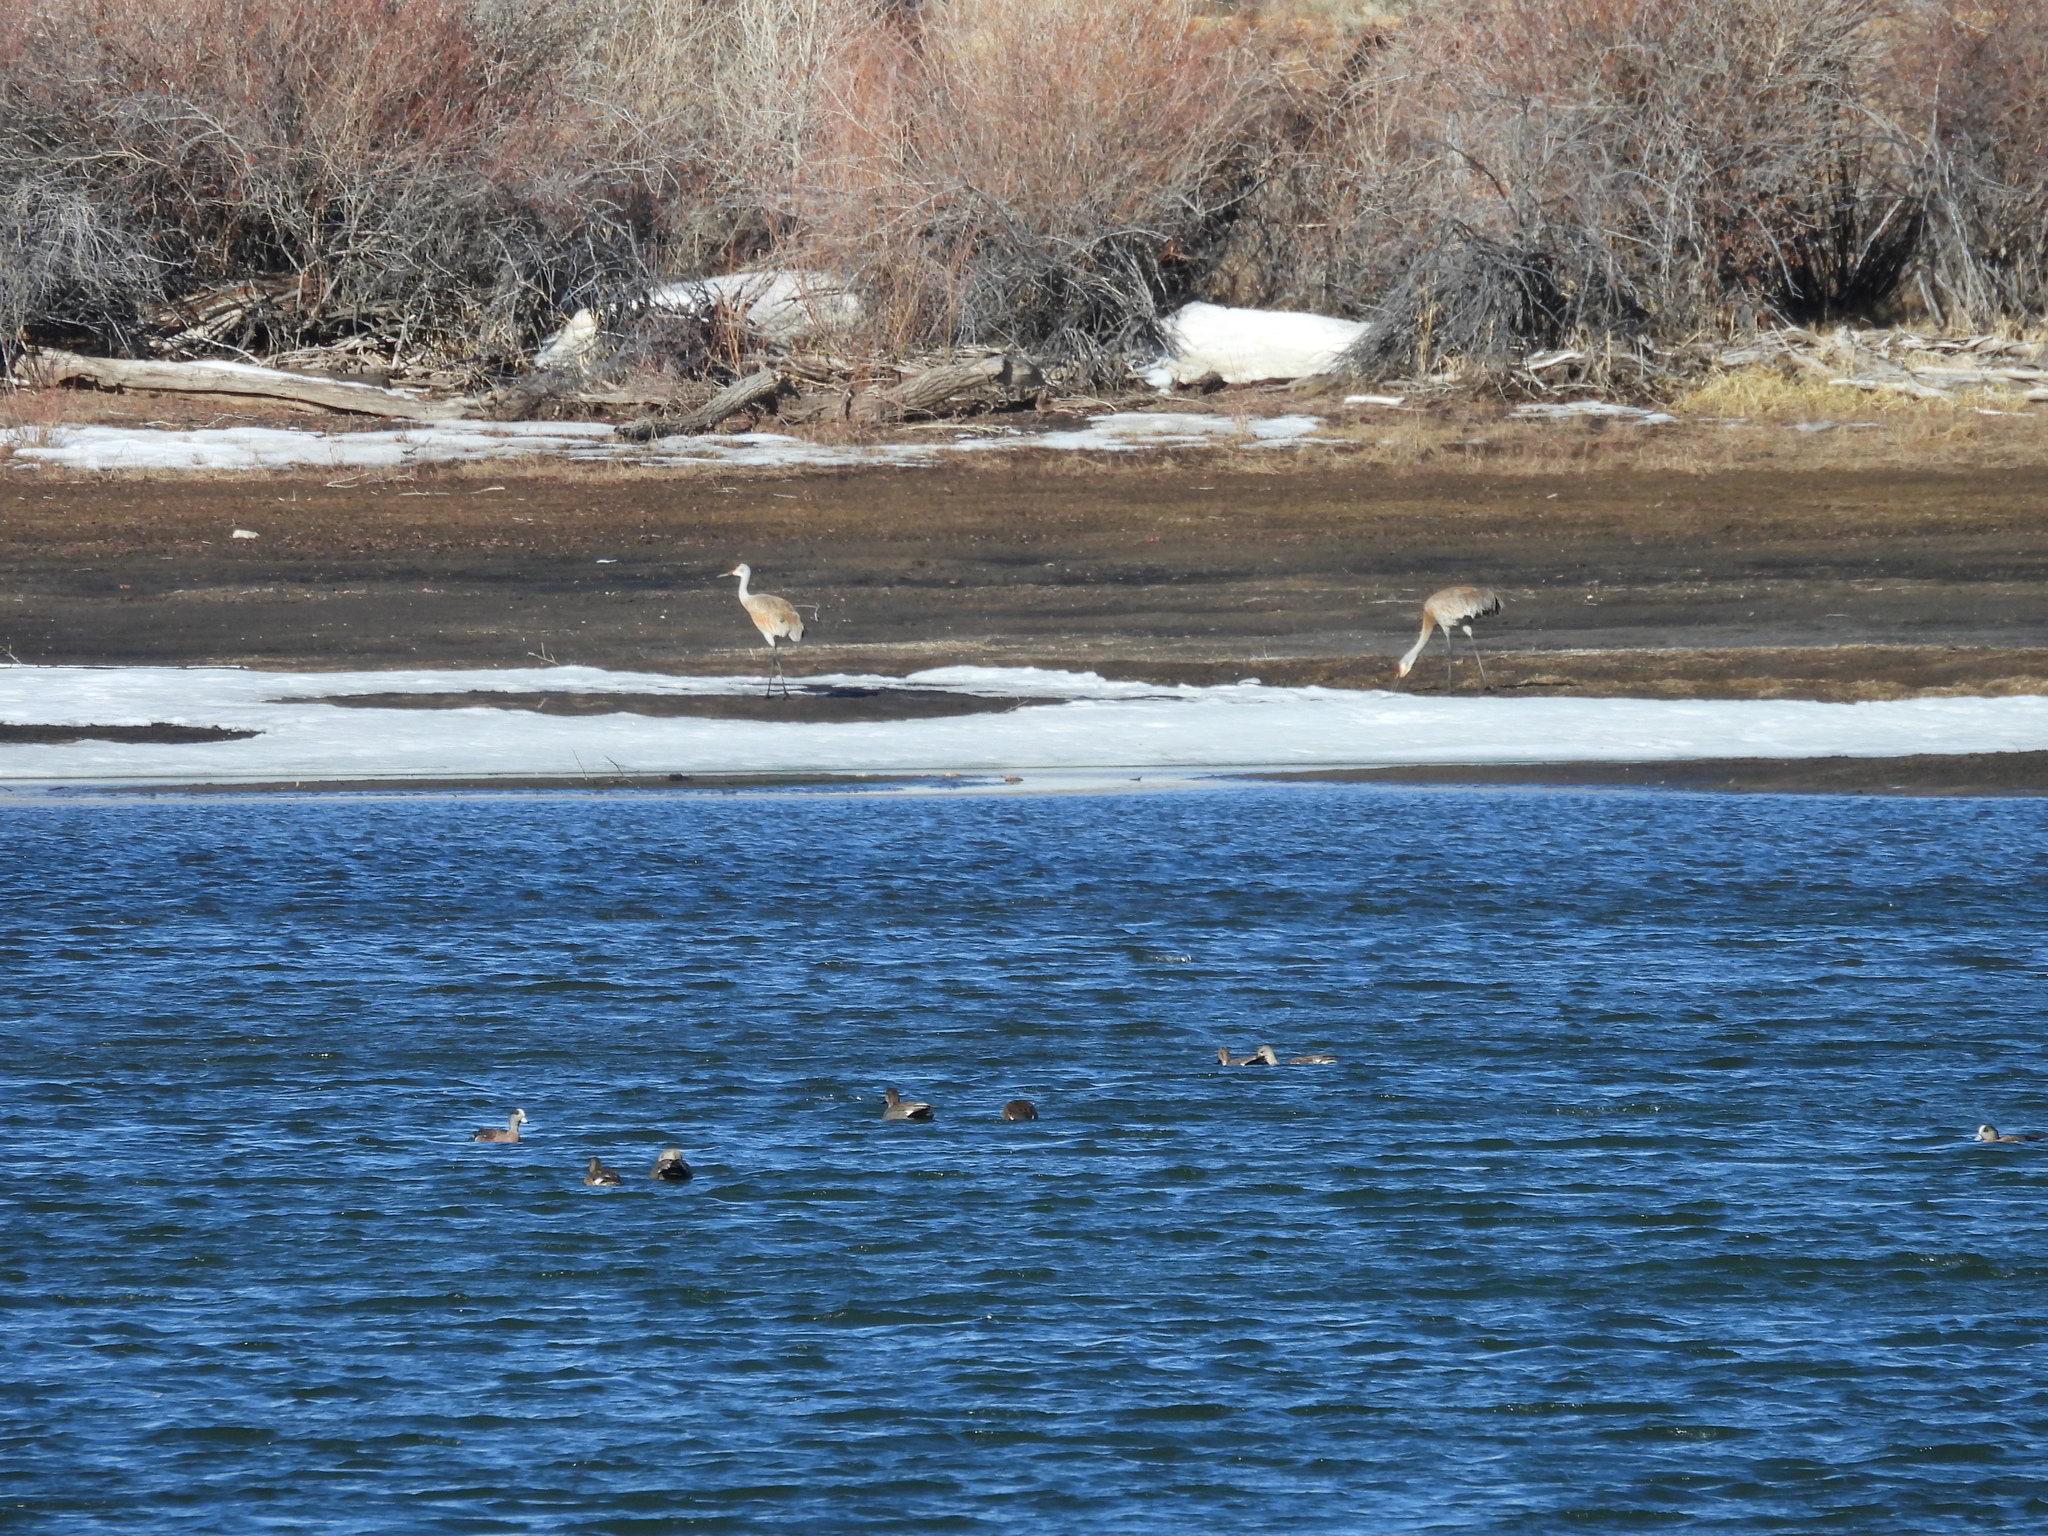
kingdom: Animalia
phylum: Chordata
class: Aves
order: Gruiformes
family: Gruidae
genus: Grus
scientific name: Grus canadensis
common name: Sandhill crane
